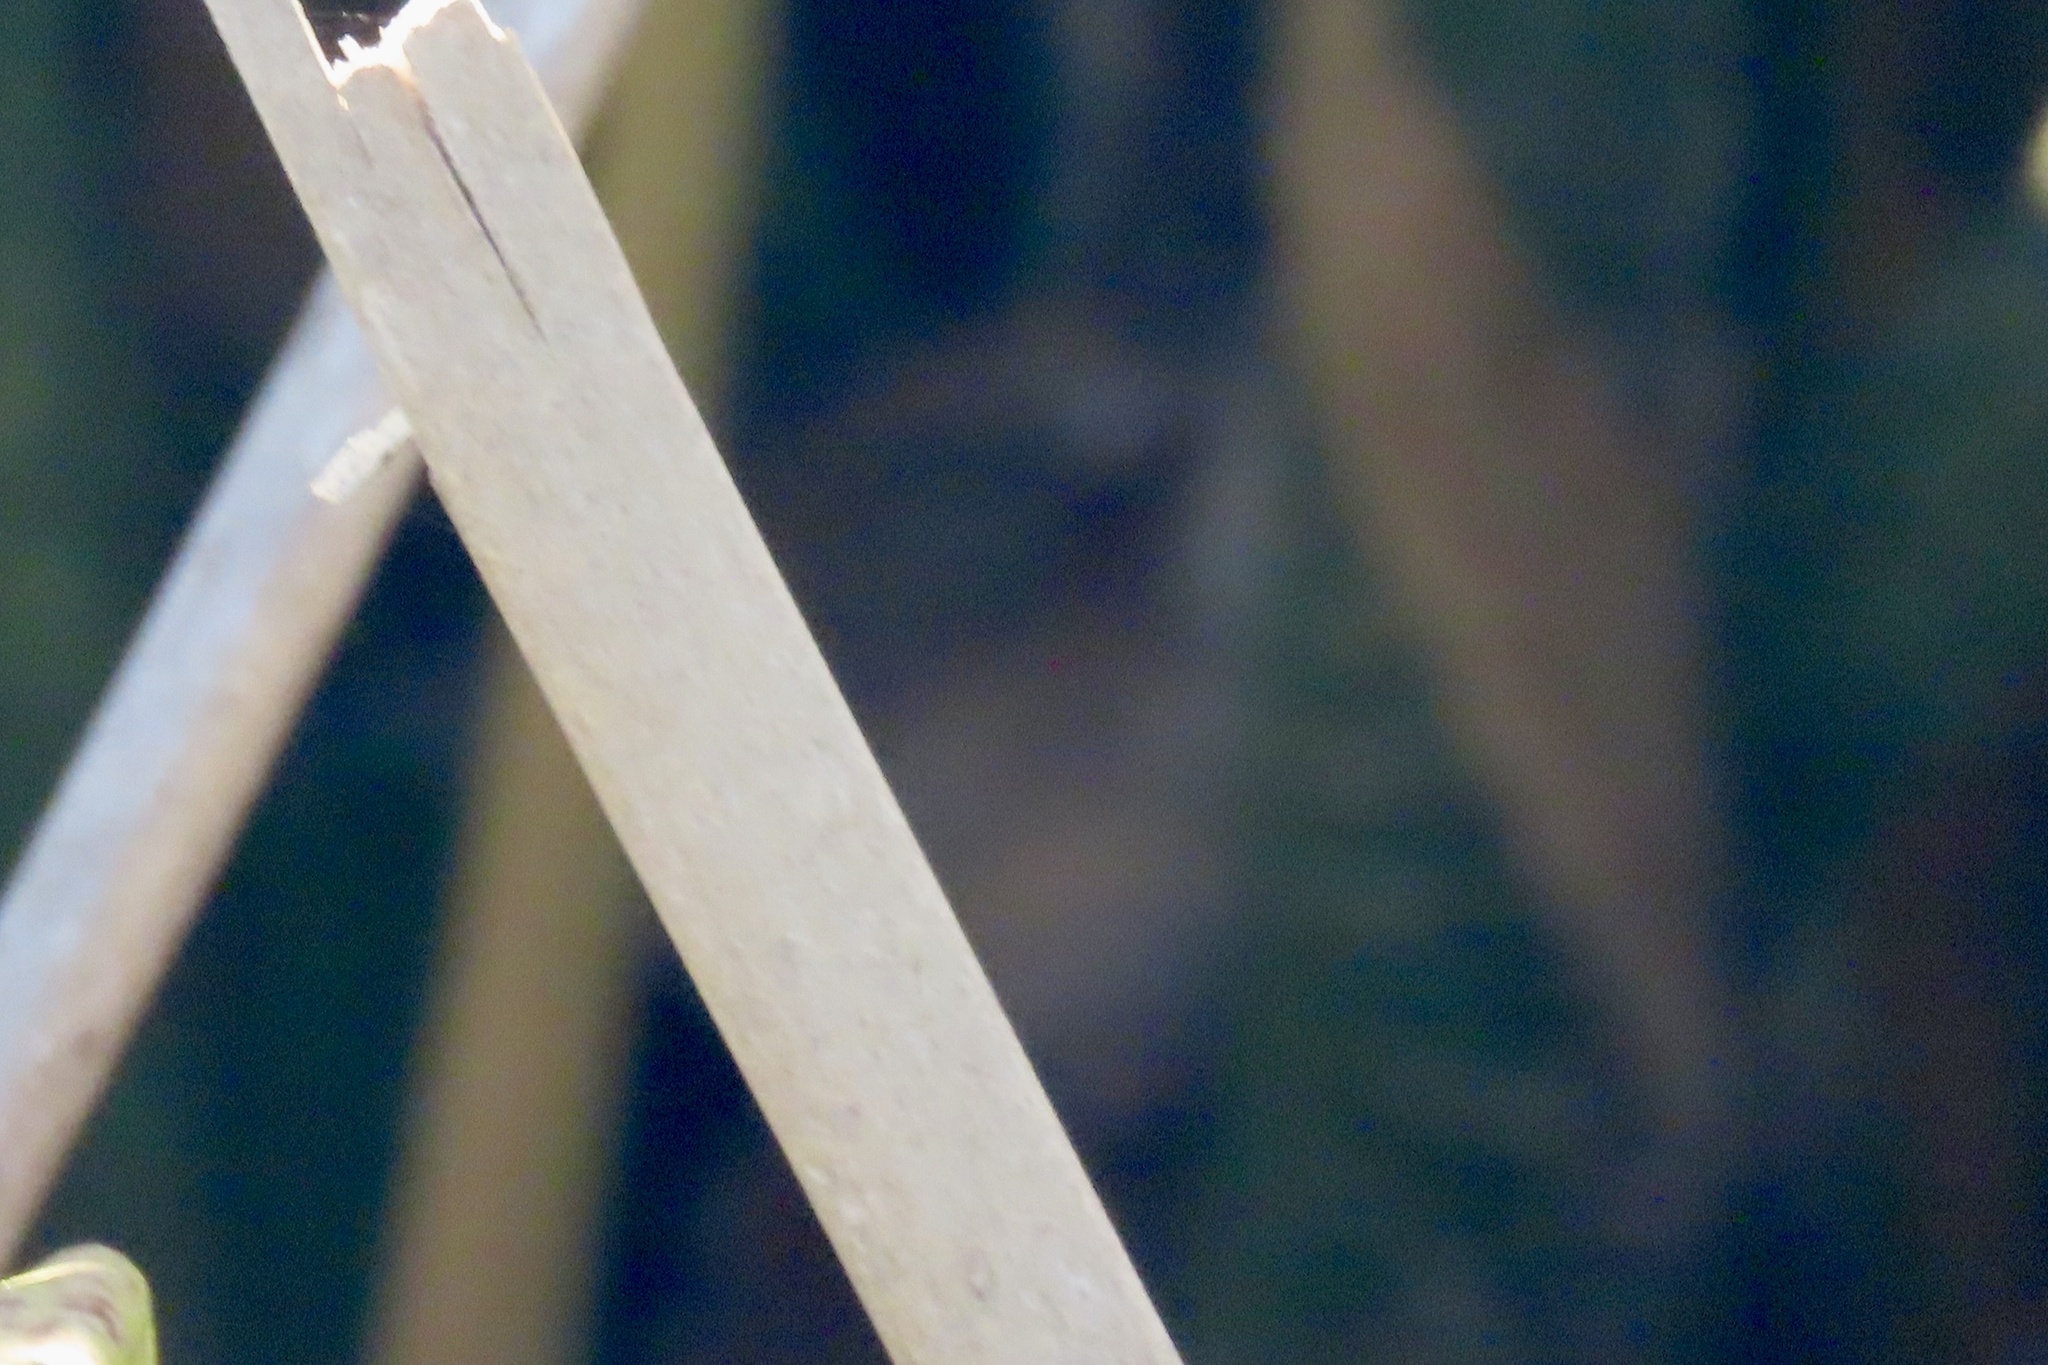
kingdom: Animalia
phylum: Chordata
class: Aves
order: Passeriformes
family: Troglodytidae
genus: Cistothorus
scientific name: Cistothorus palustris
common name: Marsh wren
